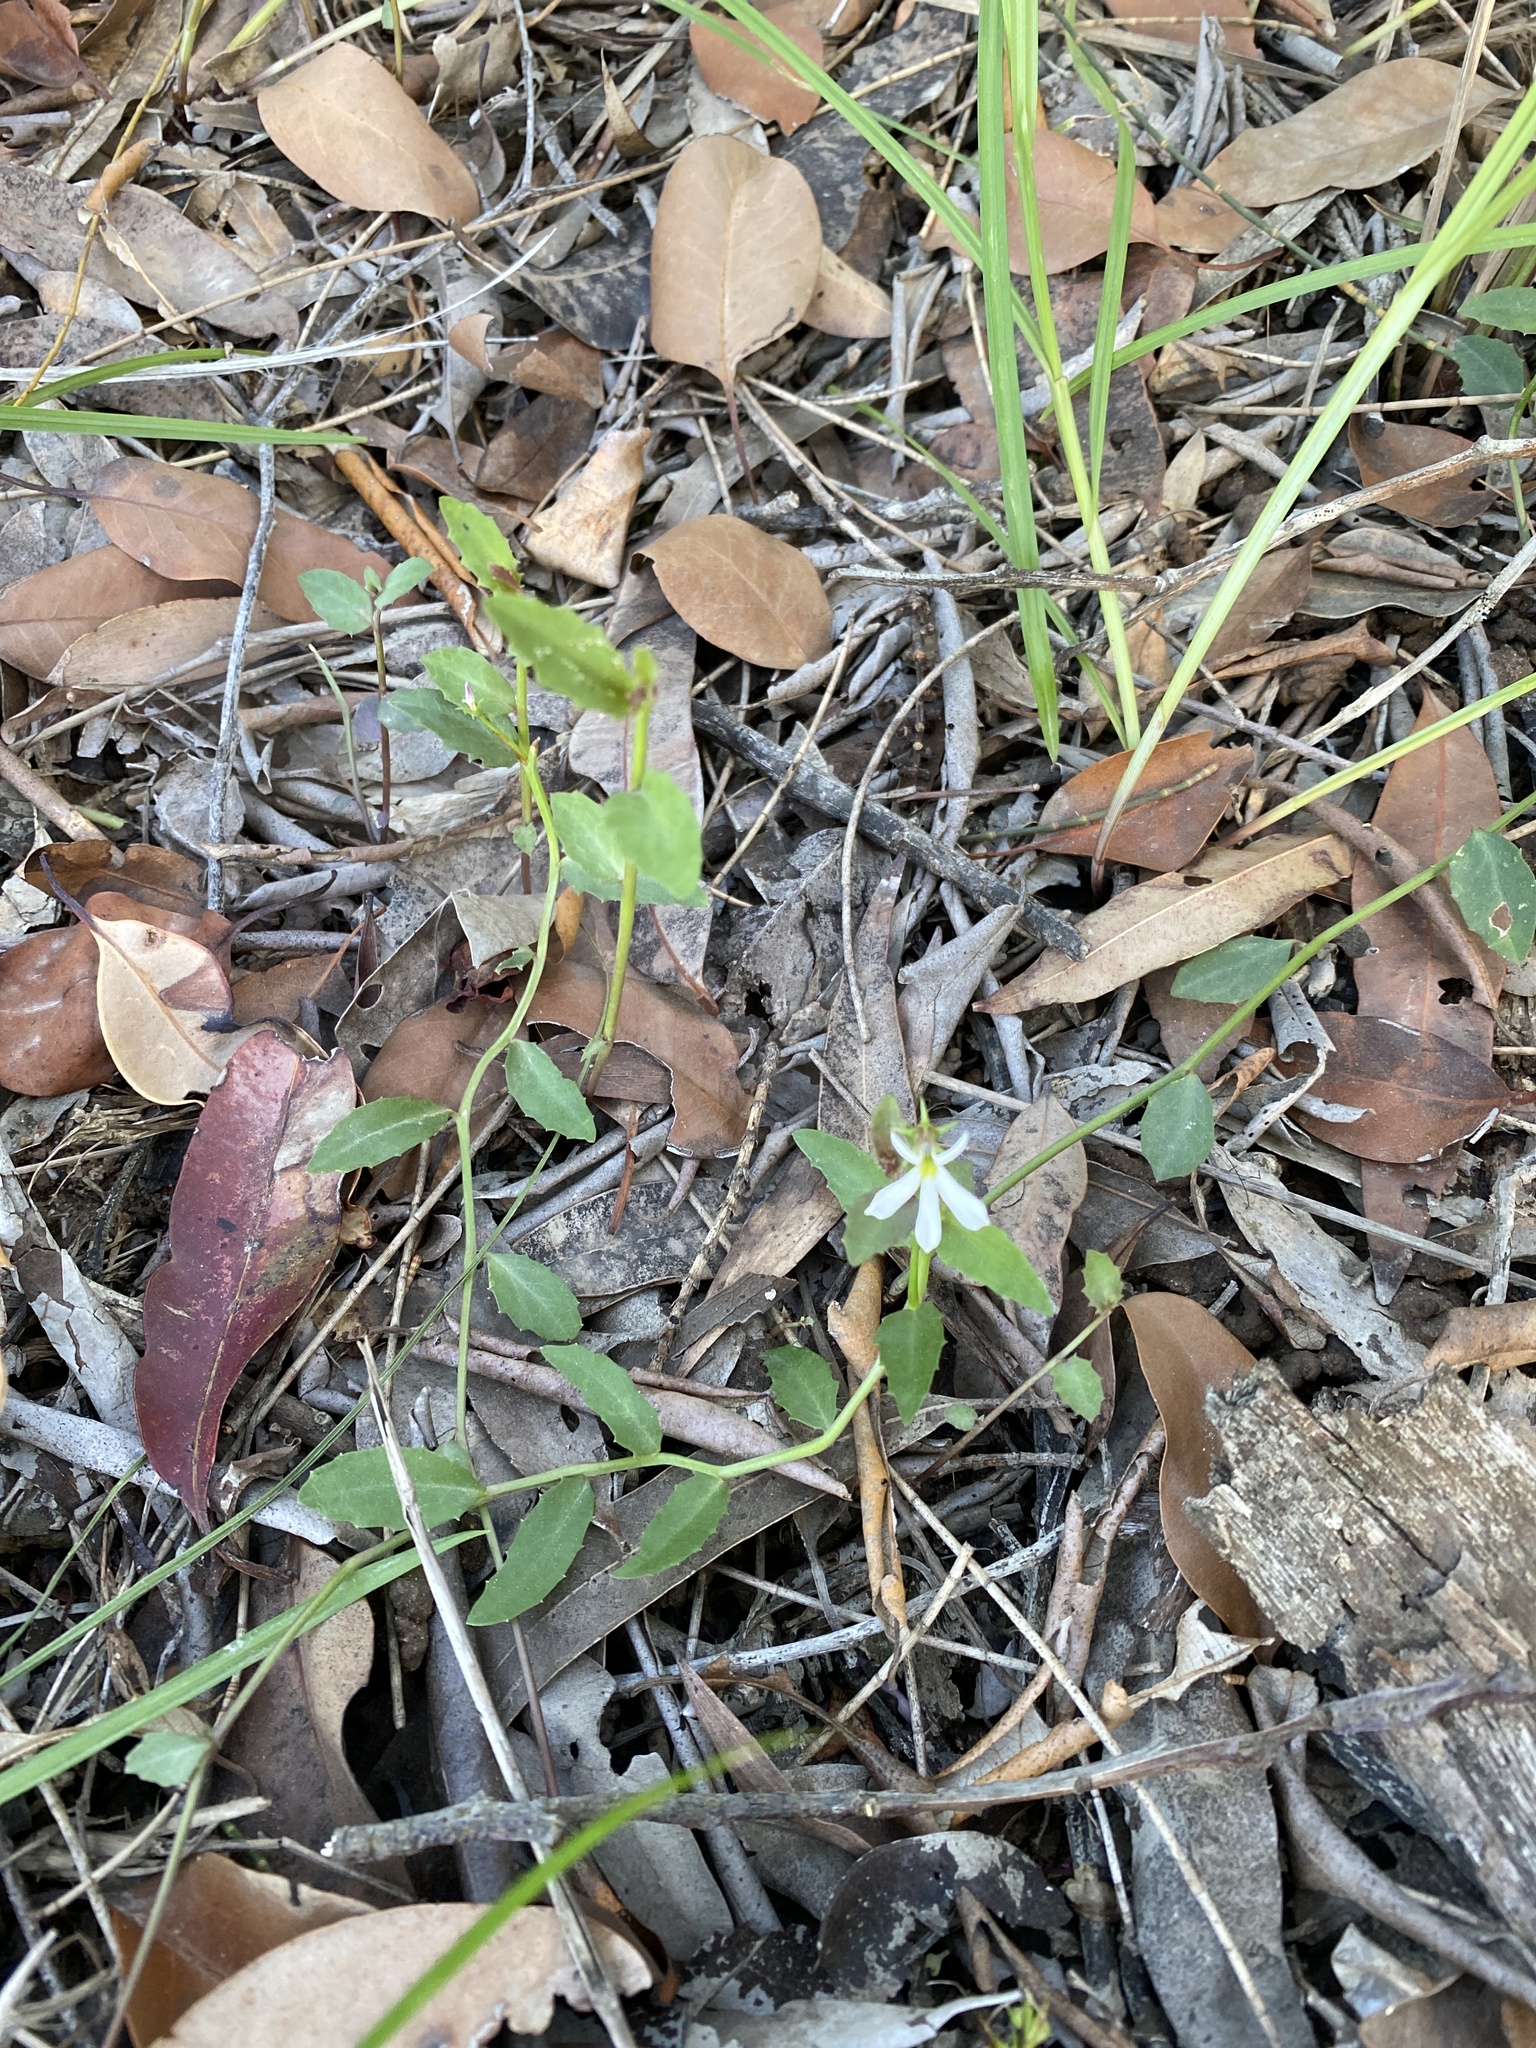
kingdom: Plantae
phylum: Tracheophyta
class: Magnoliopsida
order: Asterales
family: Campanulaceae
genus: Lobelia
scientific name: Lobelia purpurascens
